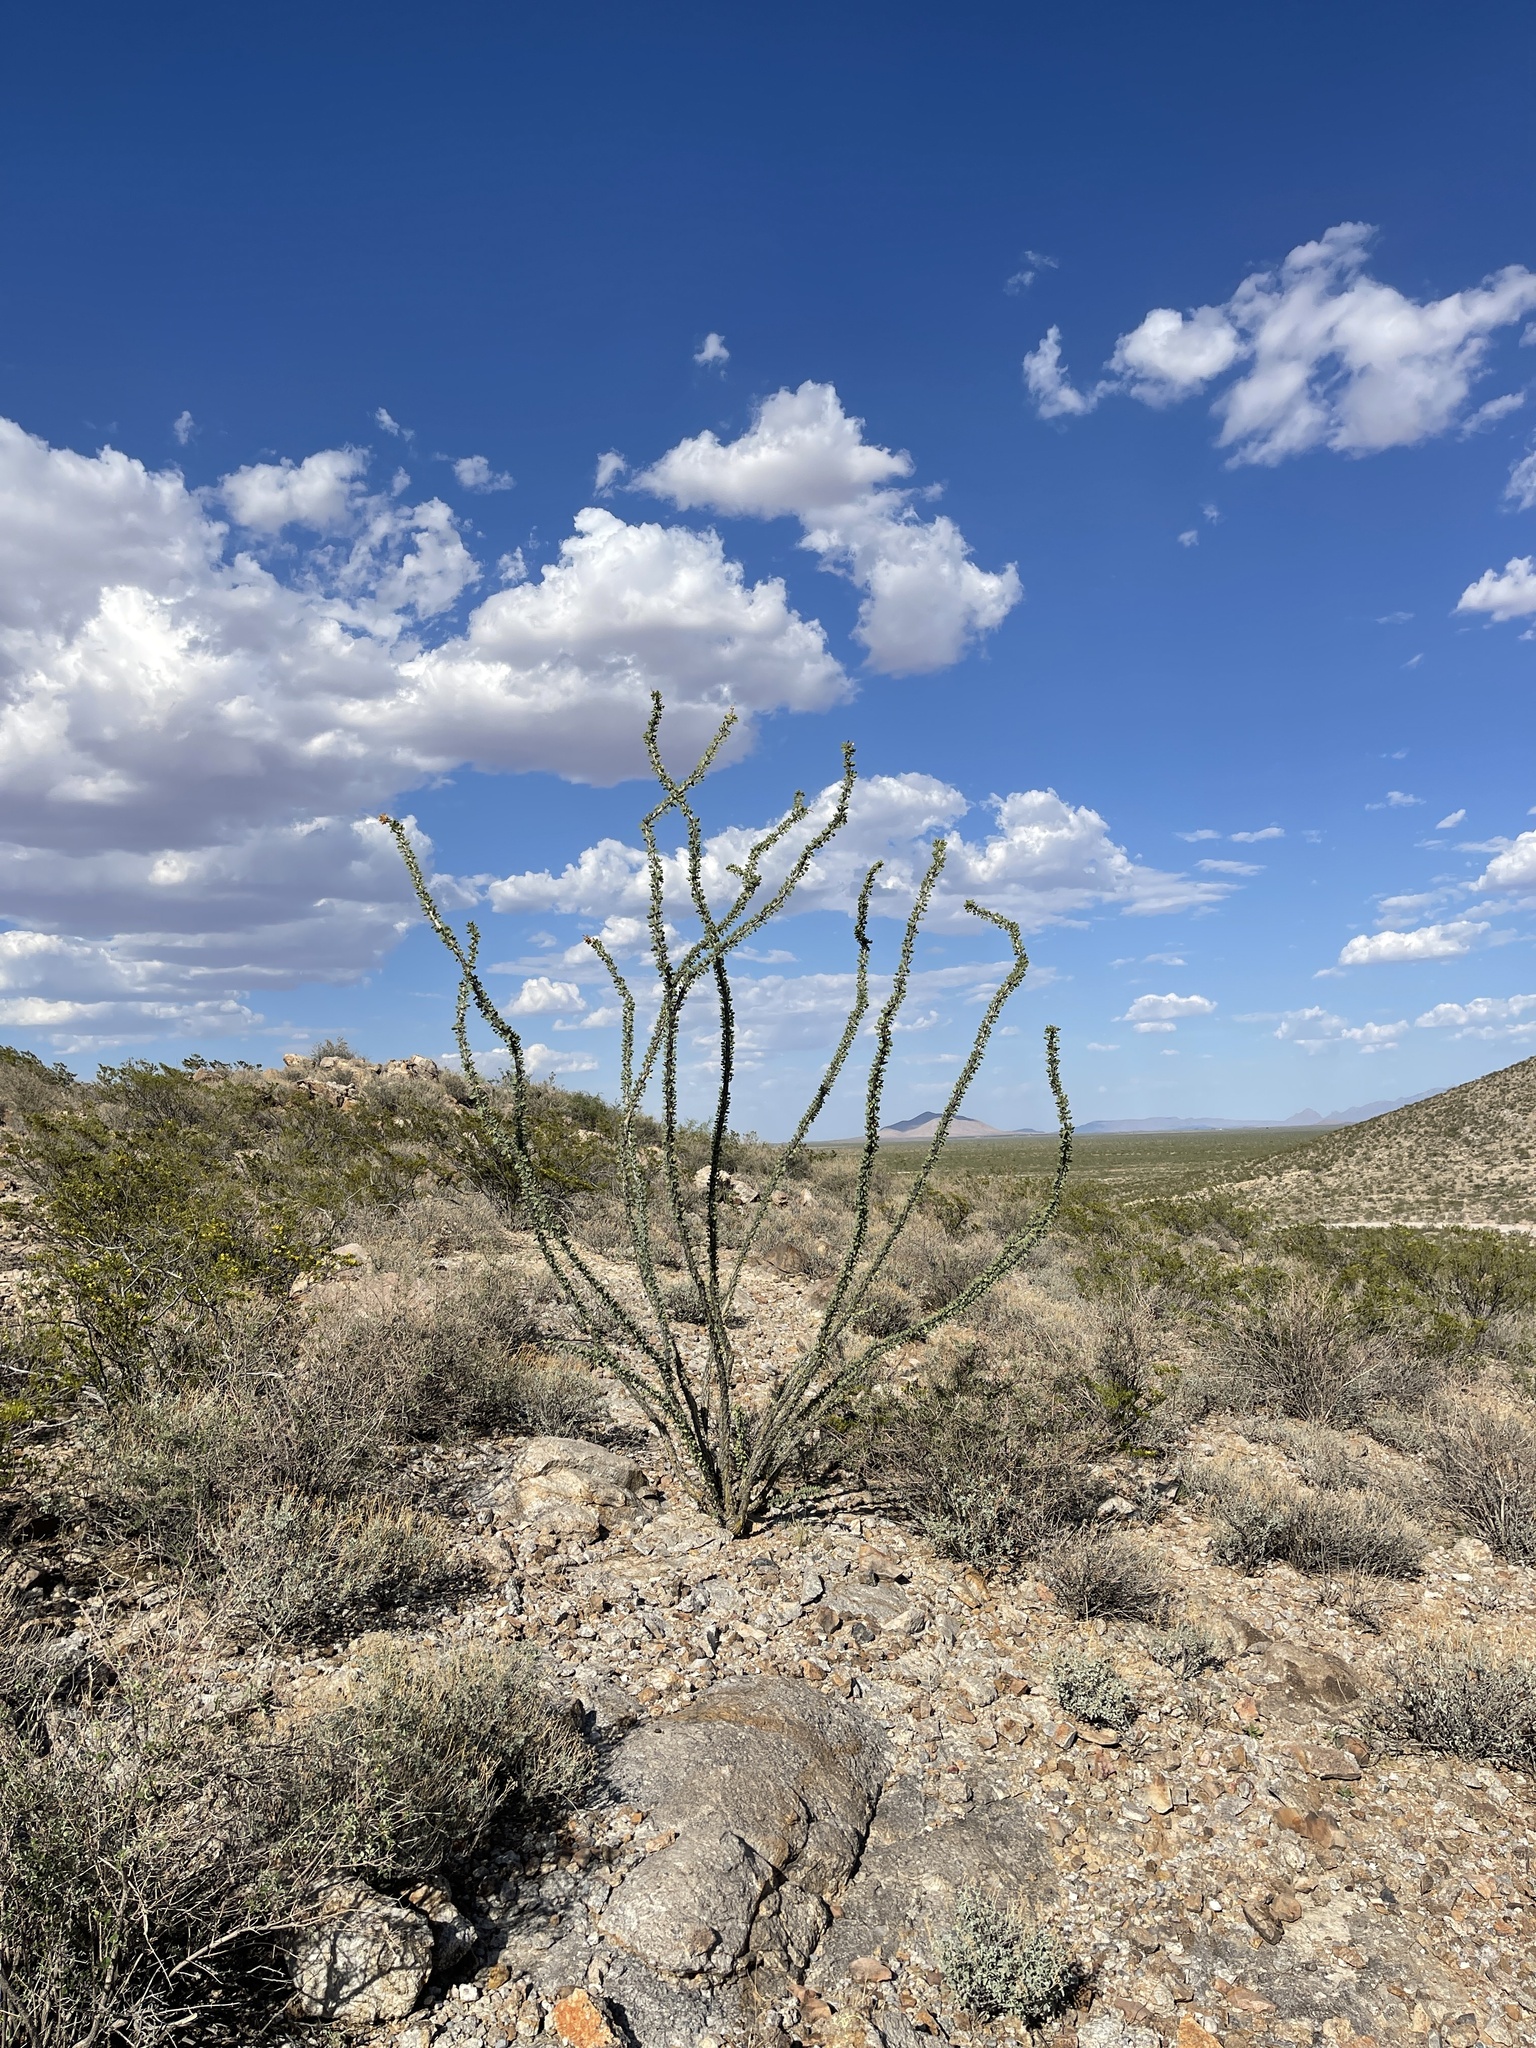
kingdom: Plantae
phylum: Tracheophyta
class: Magnoliopsida
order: Ericales
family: Fouquieriaceae
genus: Fouquieria
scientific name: Fouquieria splendens
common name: Vine-cactus
